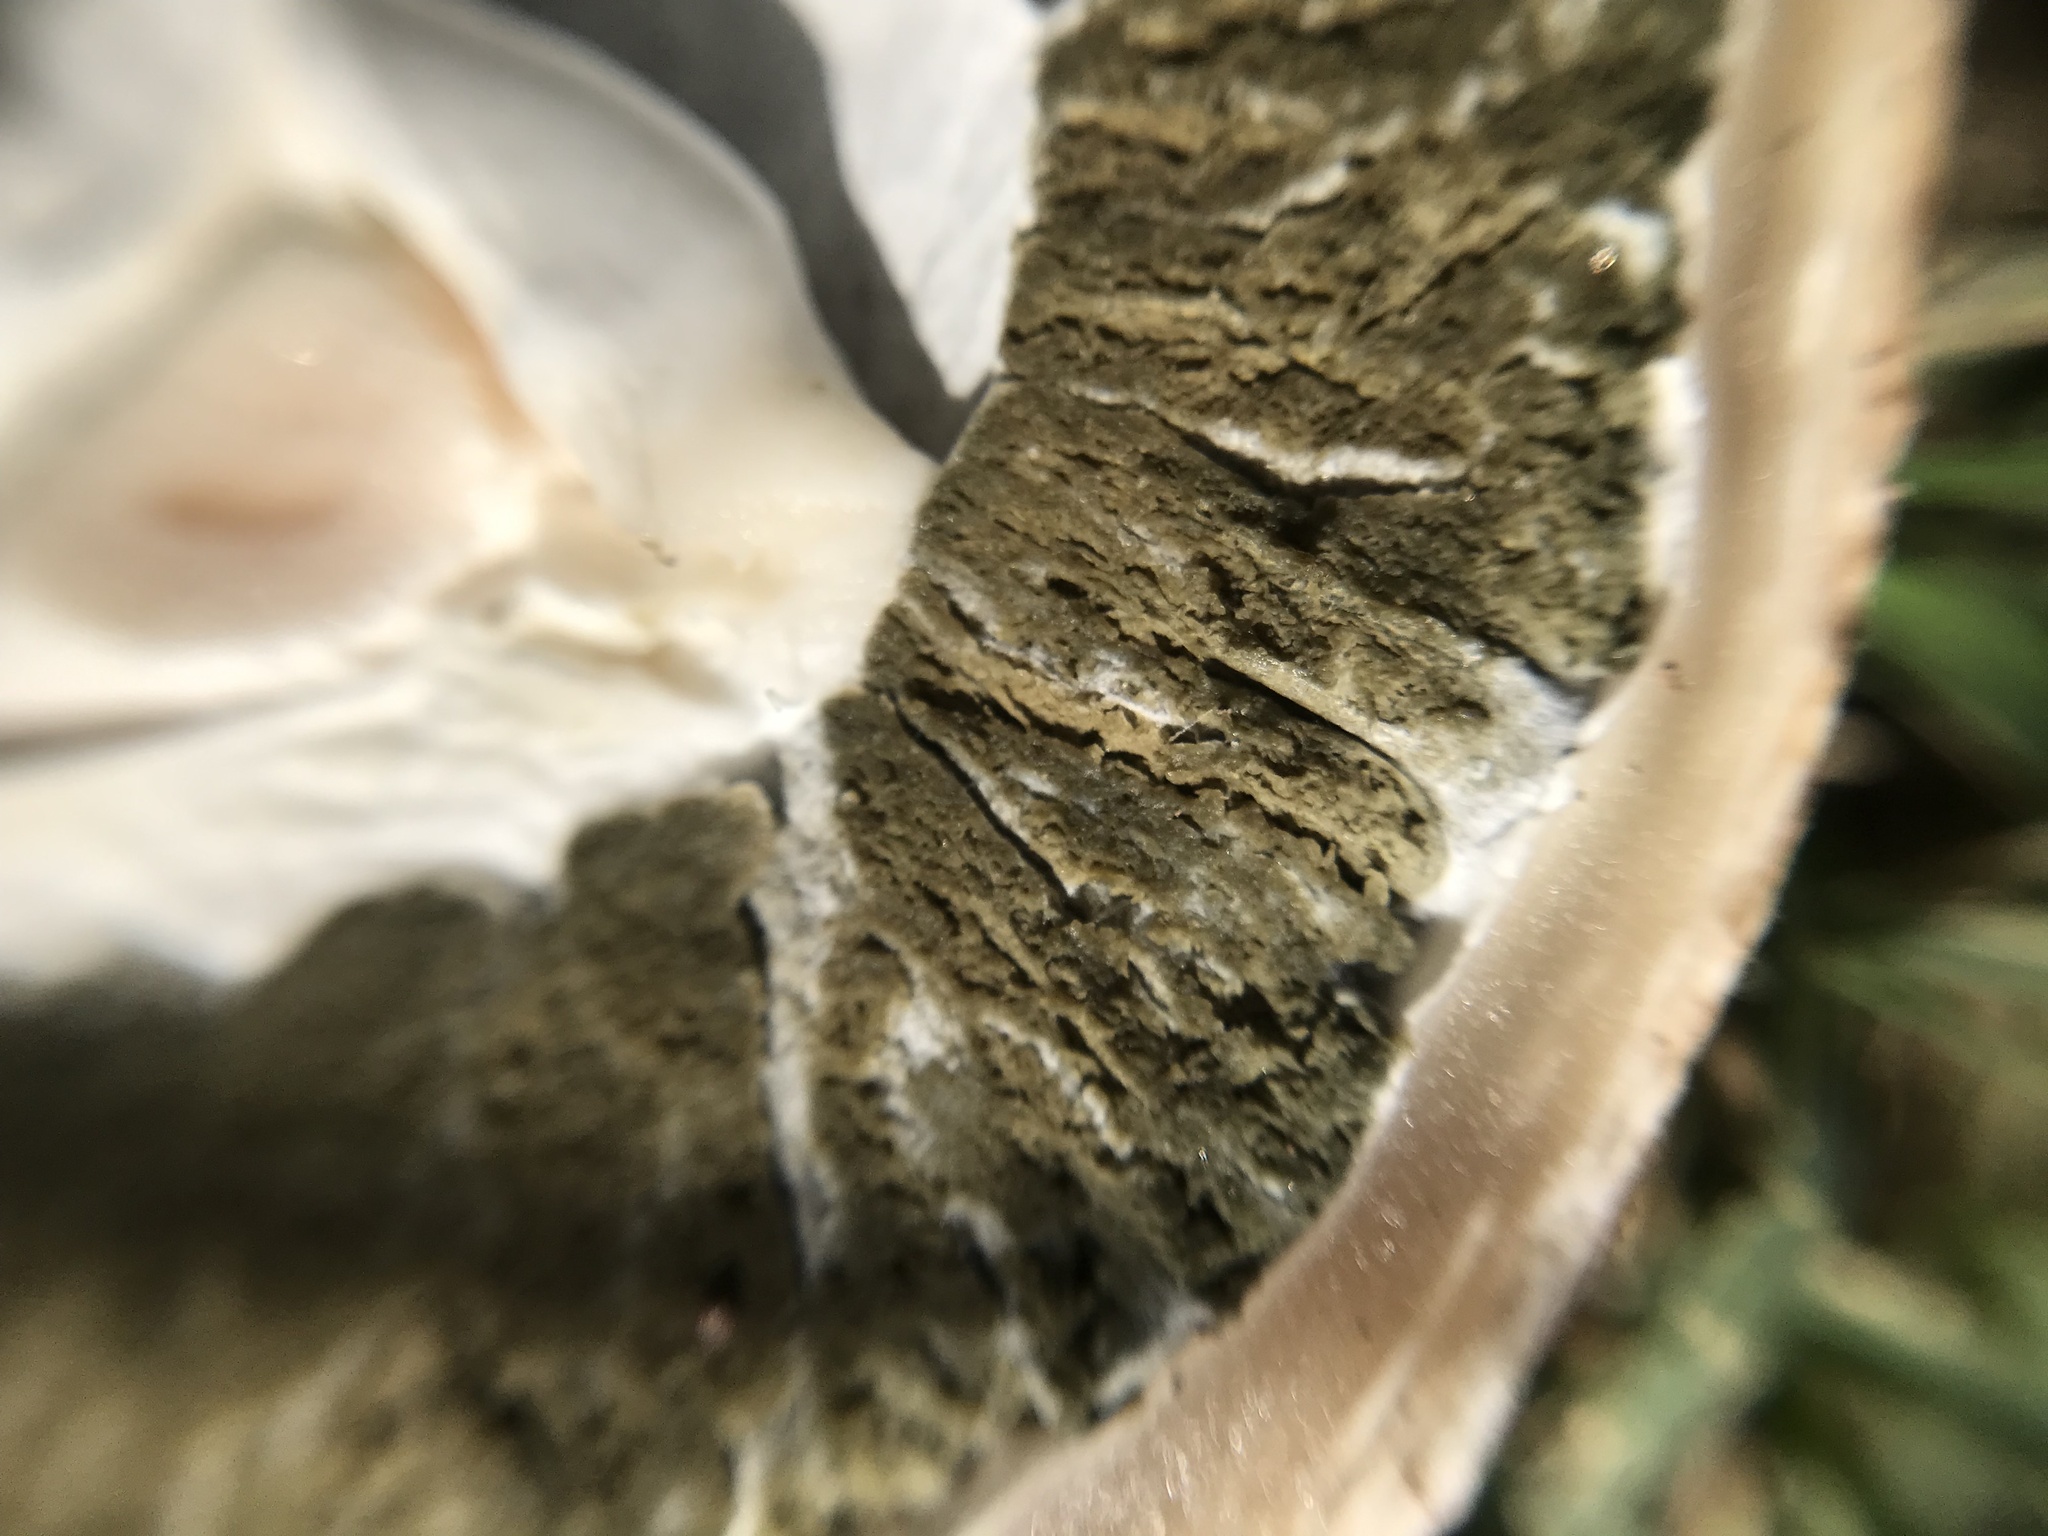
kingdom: Fungi
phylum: Basidiomycota
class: Agaricomycetes
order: Phallales
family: Phallaceae
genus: Itajahya
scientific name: Itajahya galericulata
